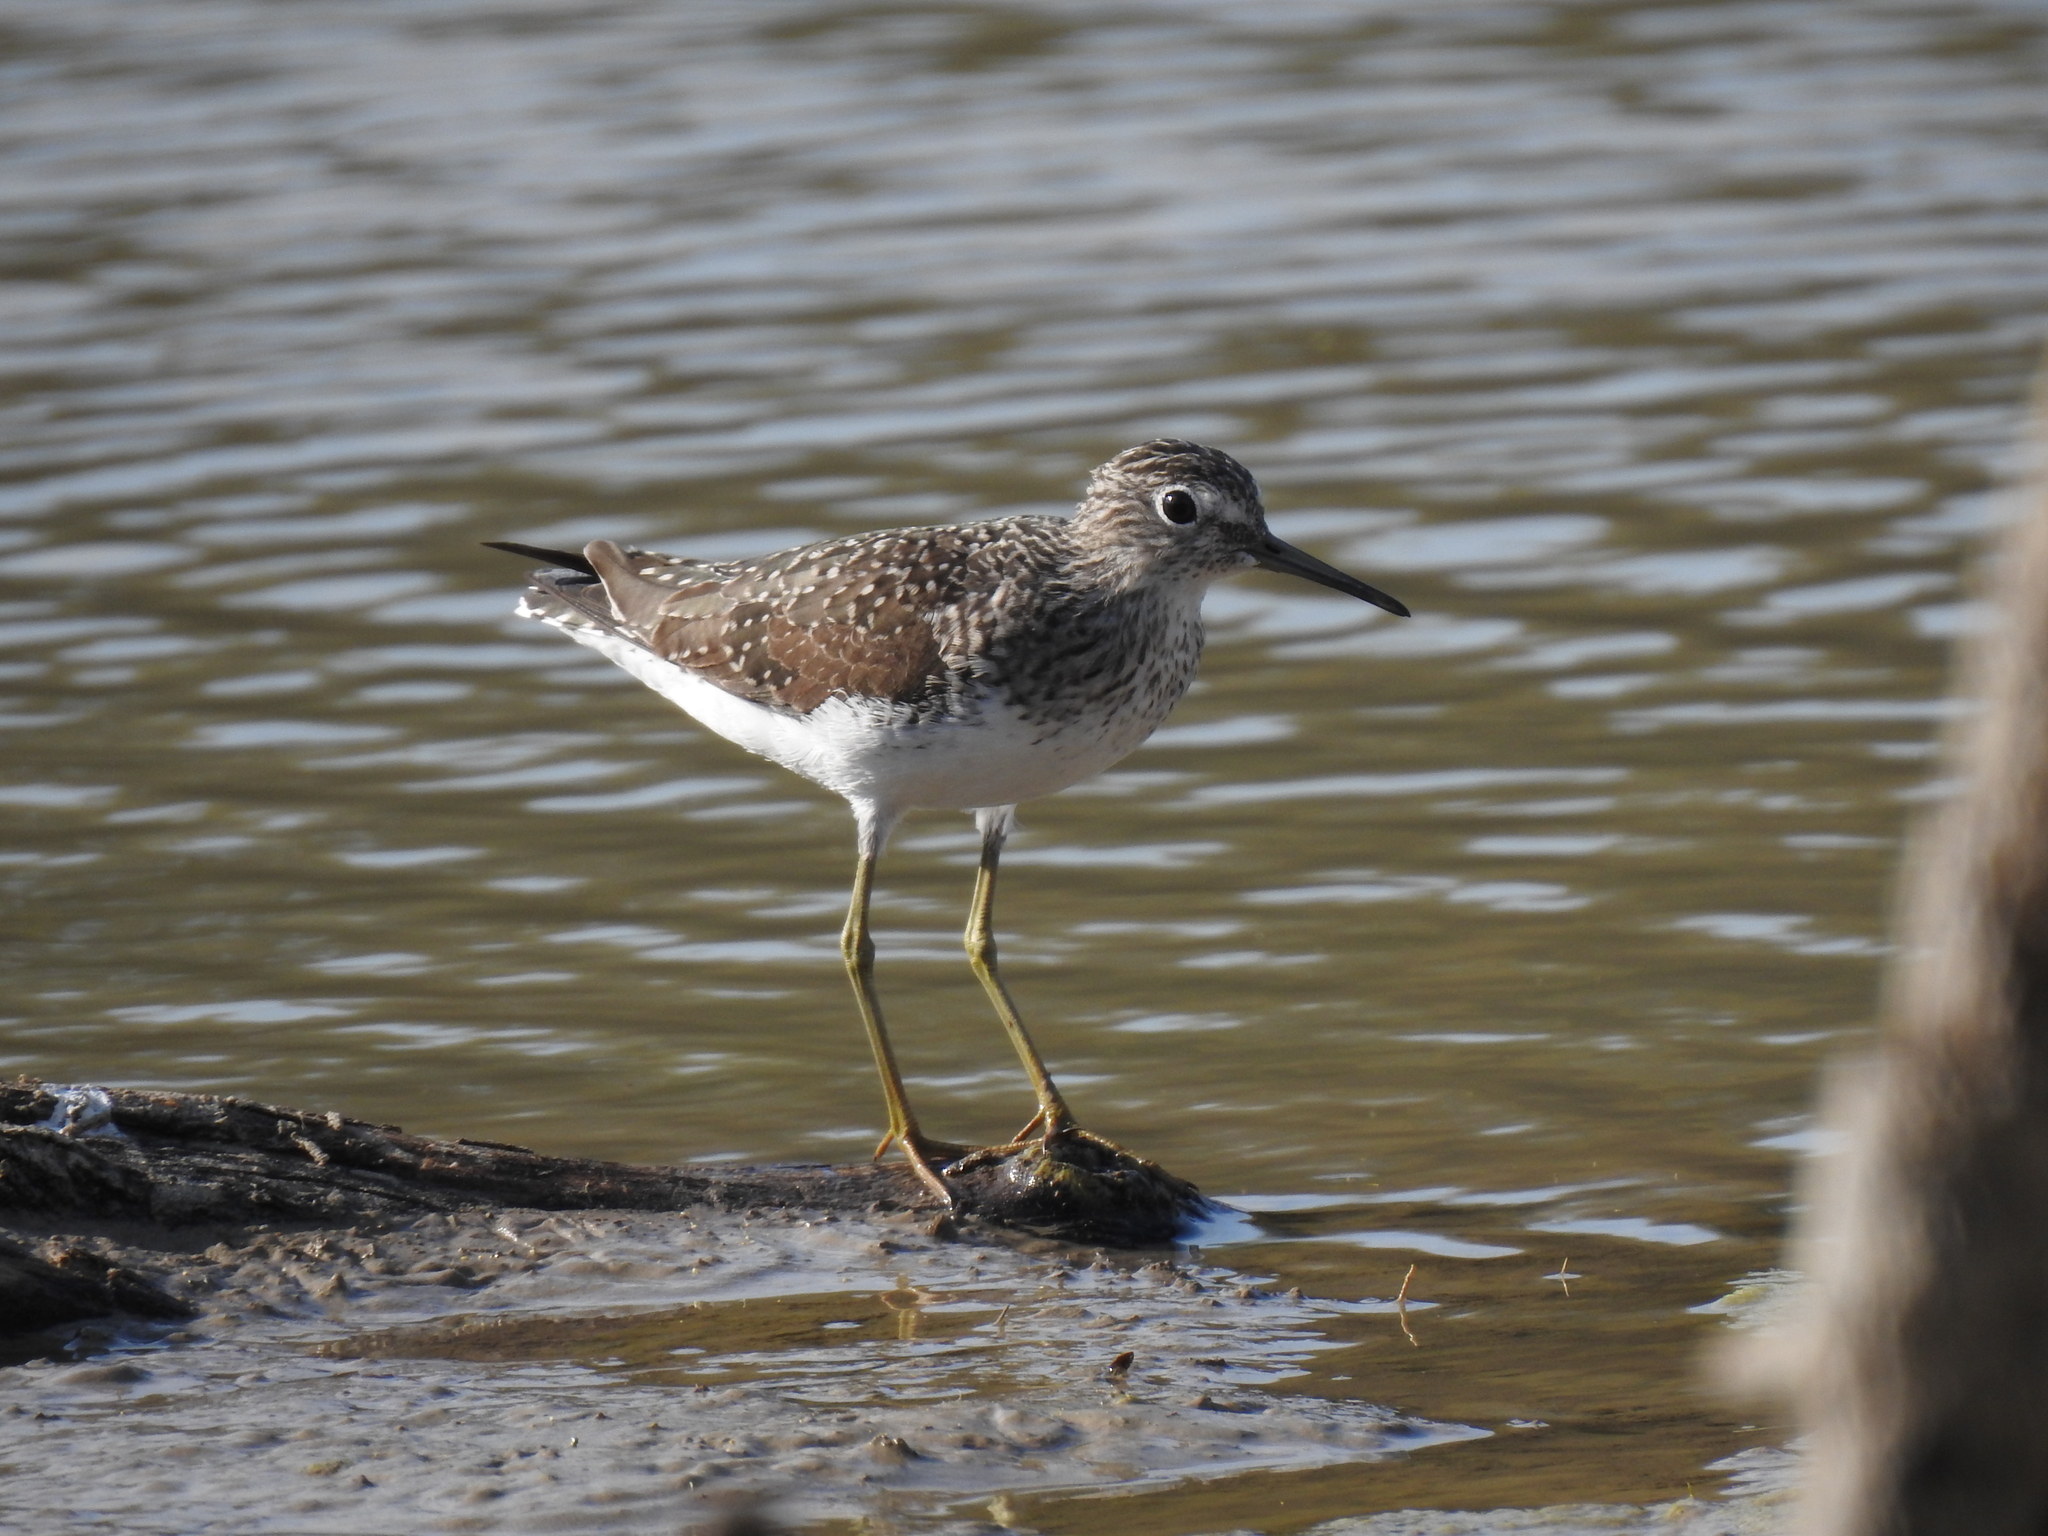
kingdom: Animalia
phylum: Chordata
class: Aves
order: Charadriiformes
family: Scolopacidae
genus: Tringa
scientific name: Tringa solitaria
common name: Solitary sandpiper
